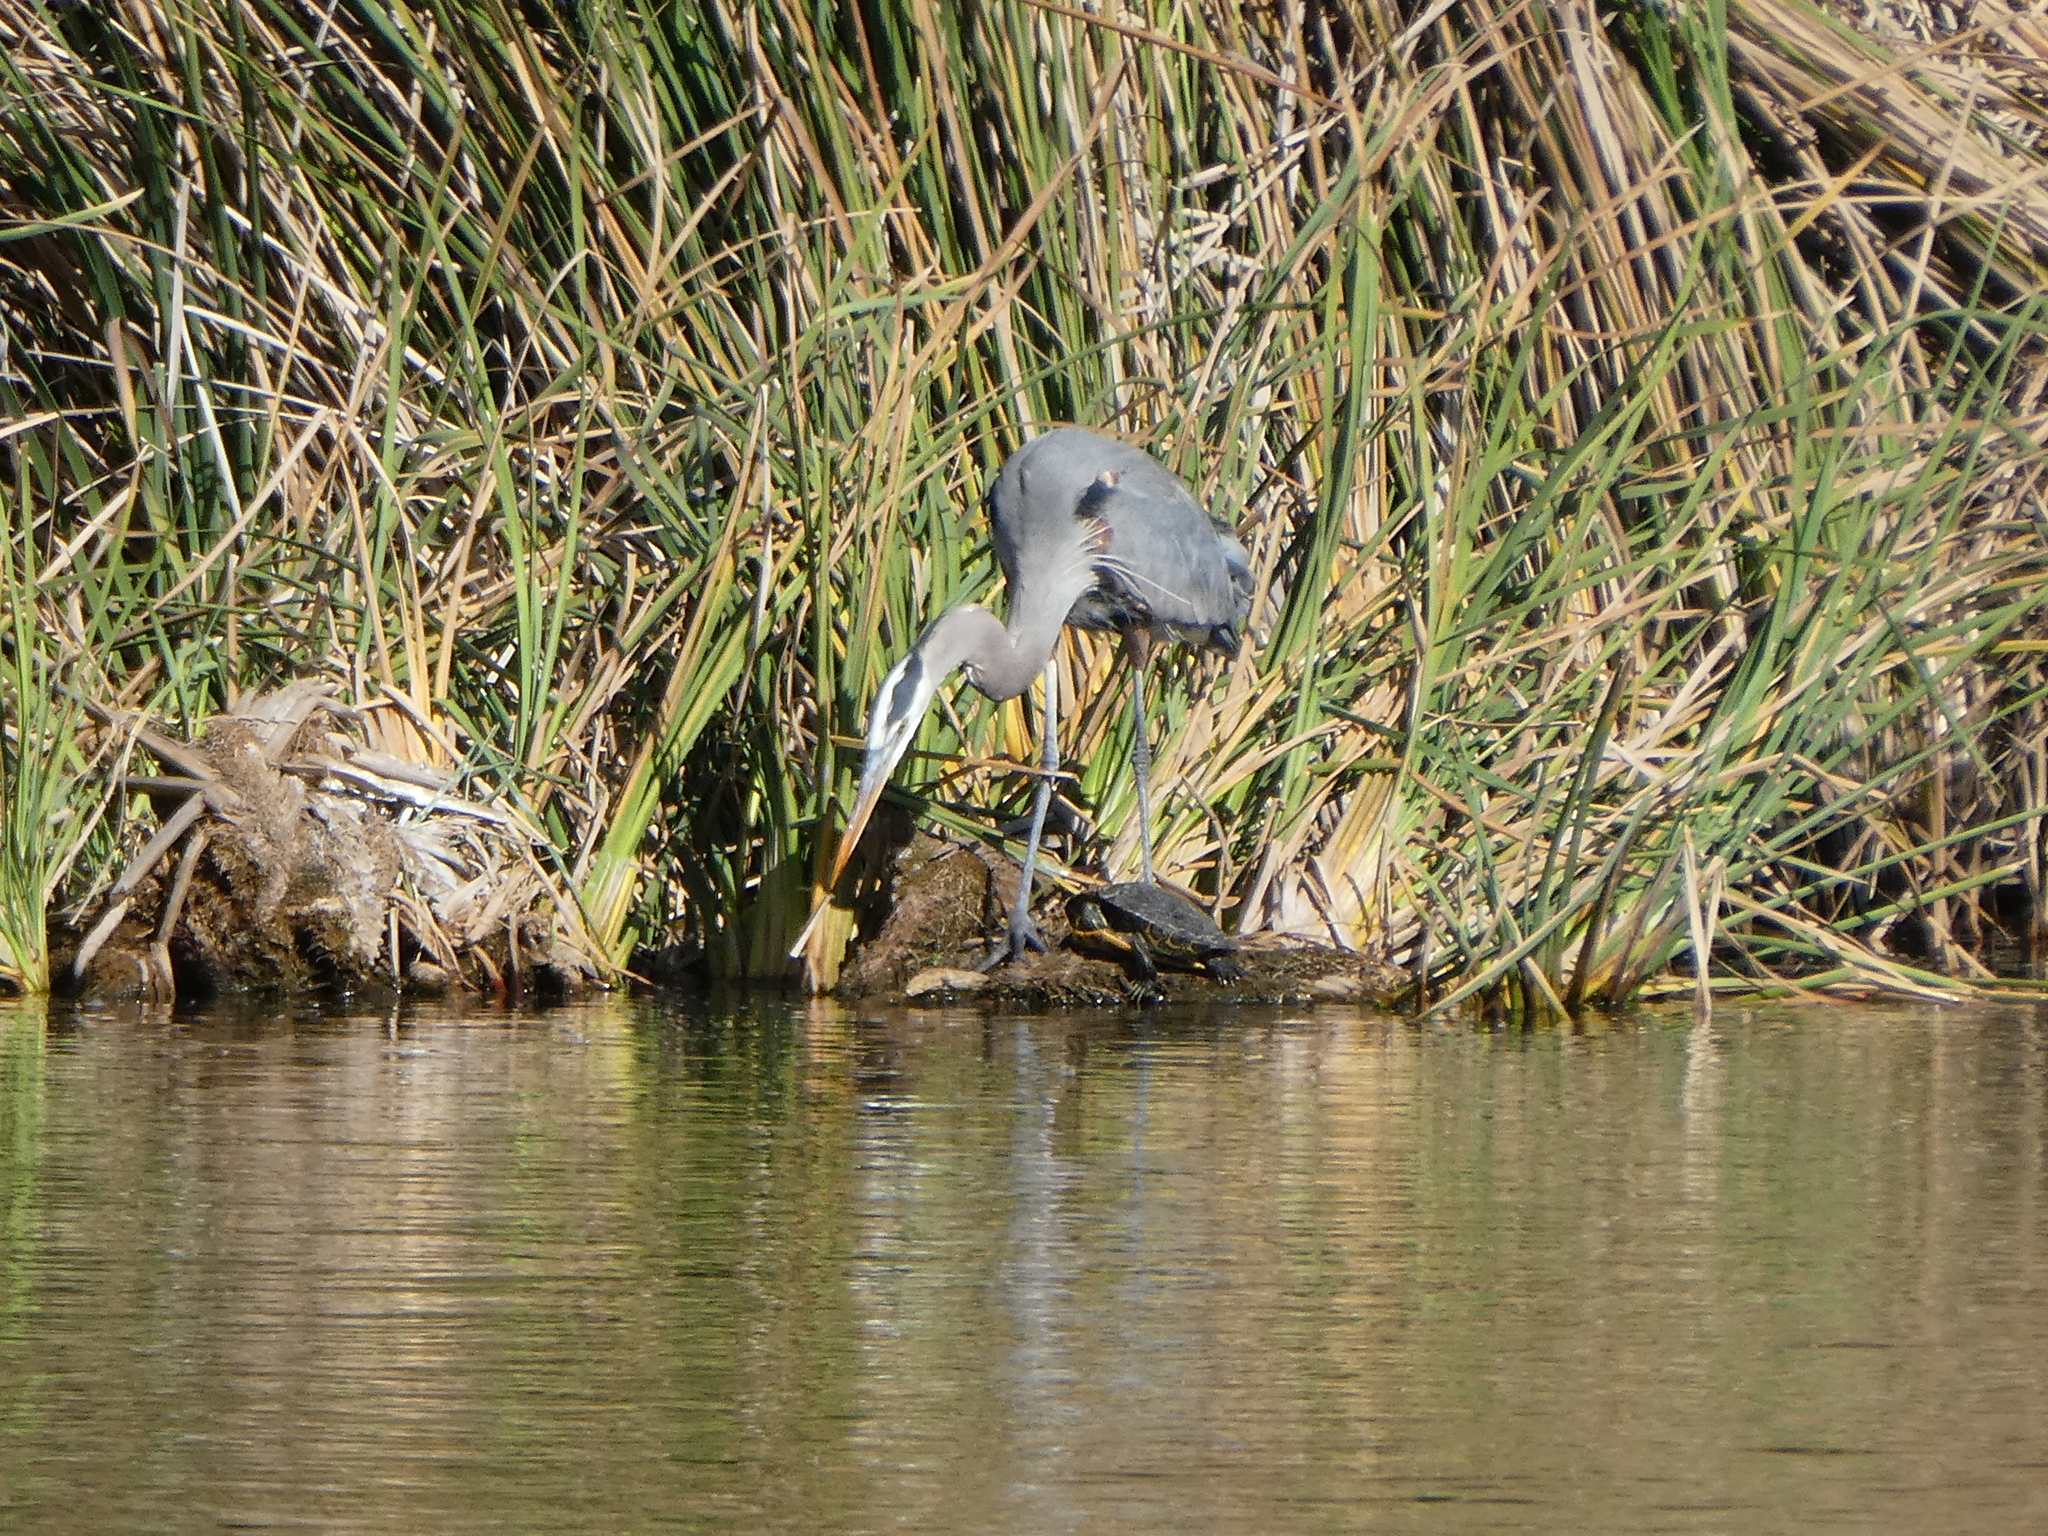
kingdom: Animalia
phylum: Chordata
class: Testudines
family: Emydidae
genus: Trachemys
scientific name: Trachemys scripta
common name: Slider
